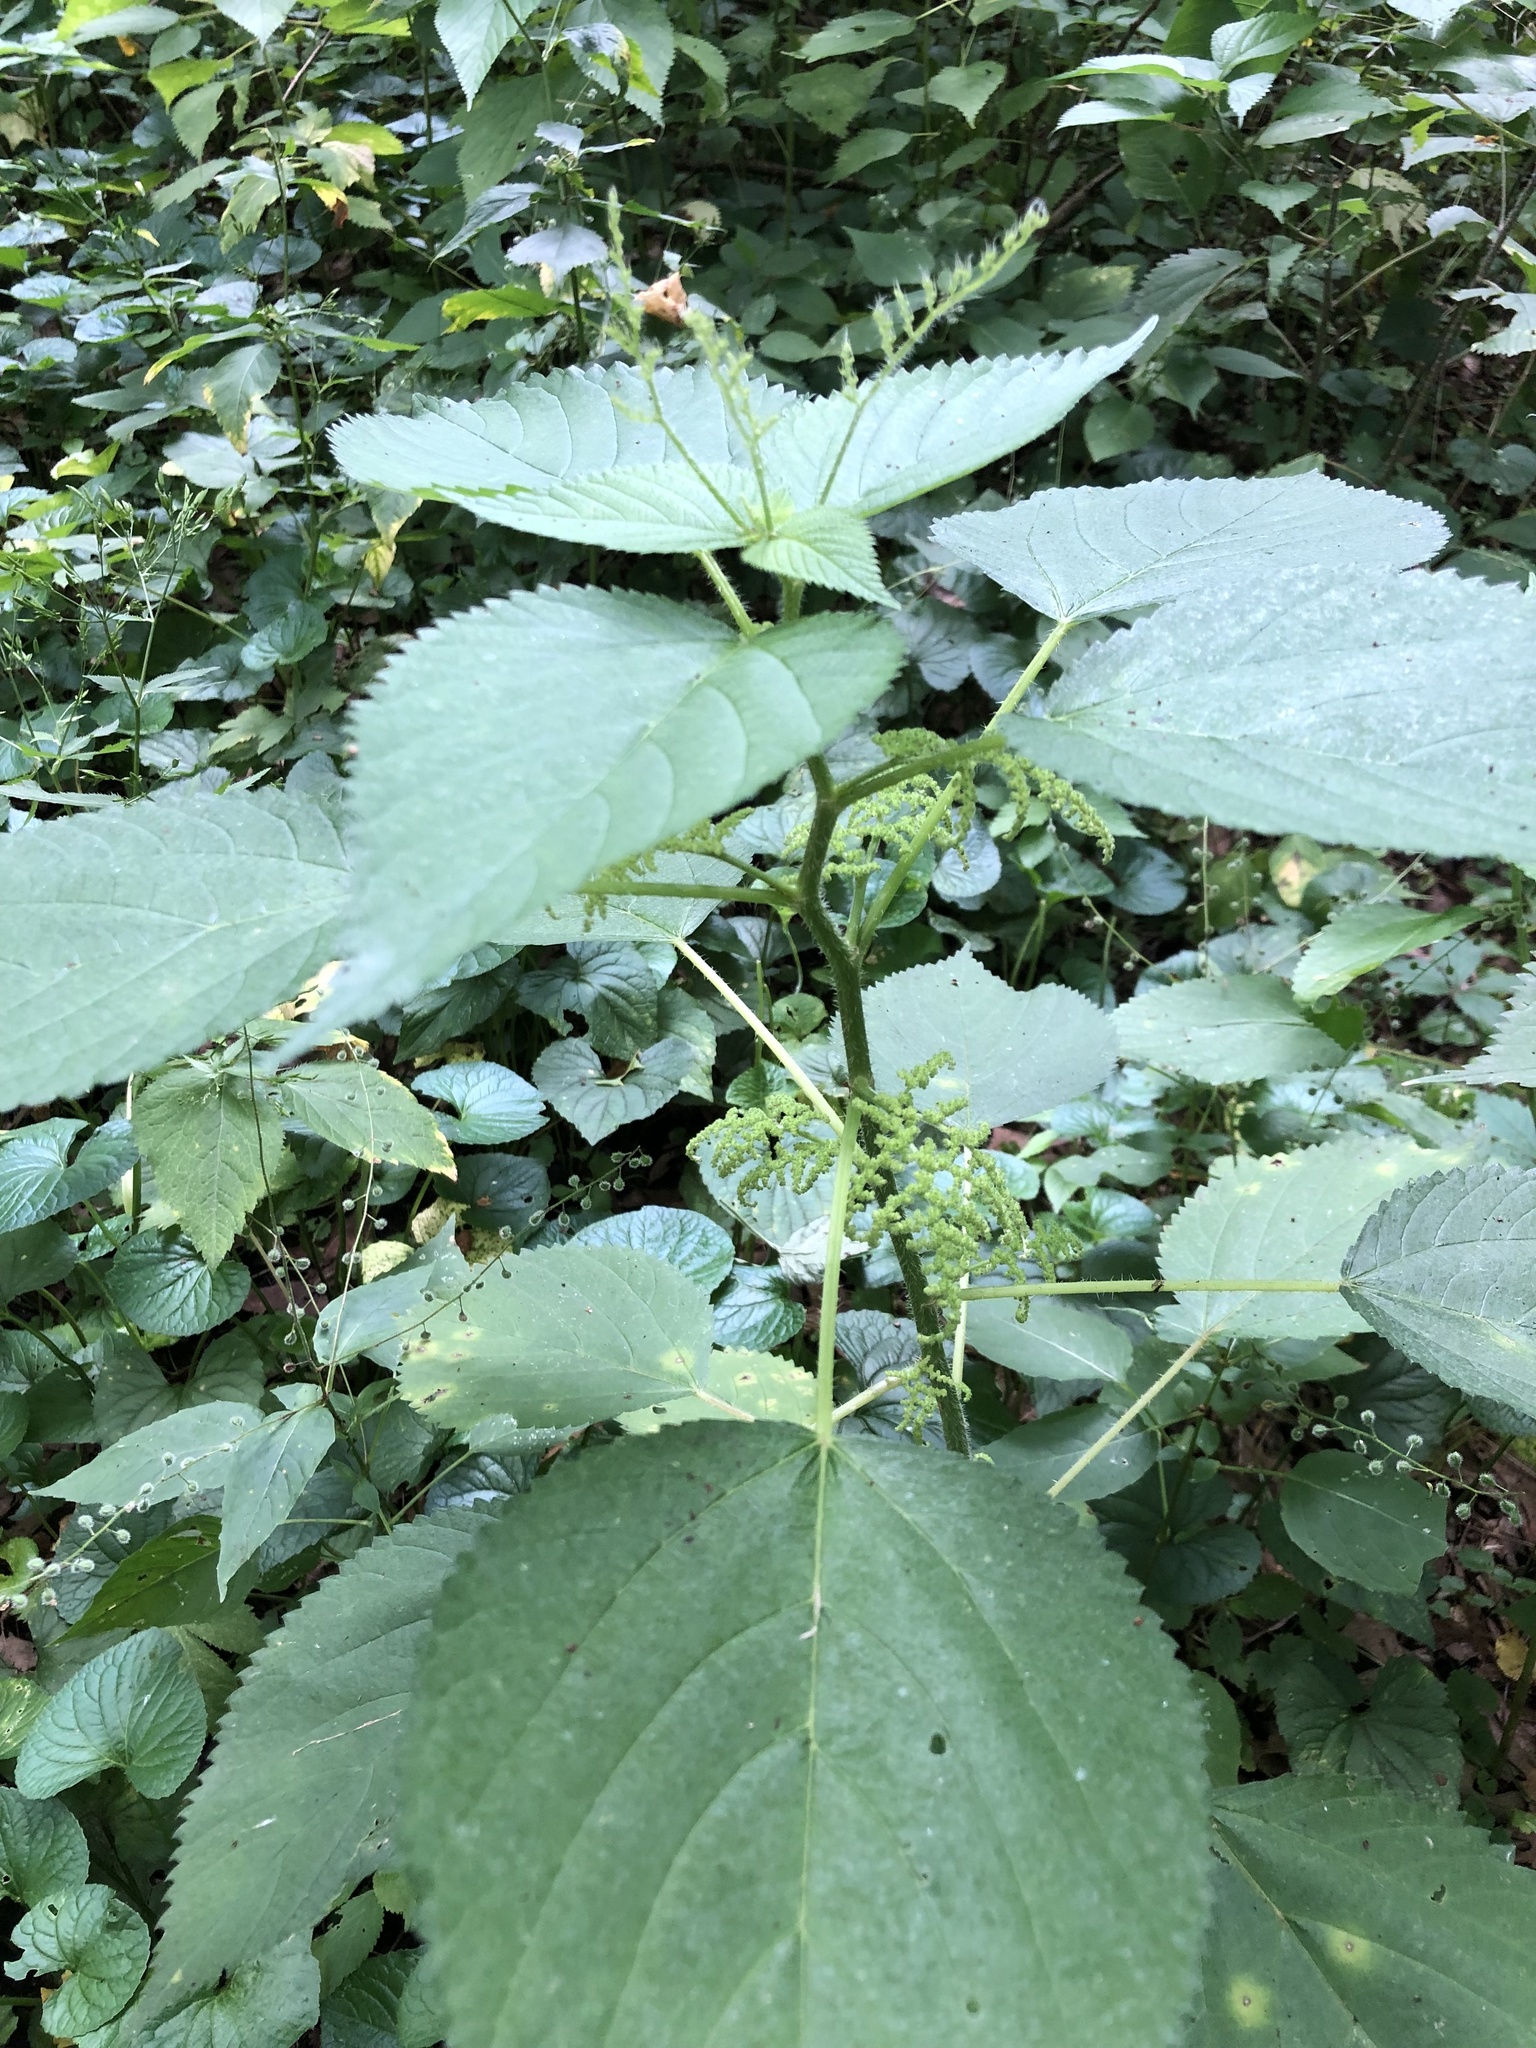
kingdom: Plantae
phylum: Tracheophyta
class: Magnoliopsida
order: Rosales
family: Urticaceae
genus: Laportea
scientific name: Laportea canadensis
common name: Canada nettle
